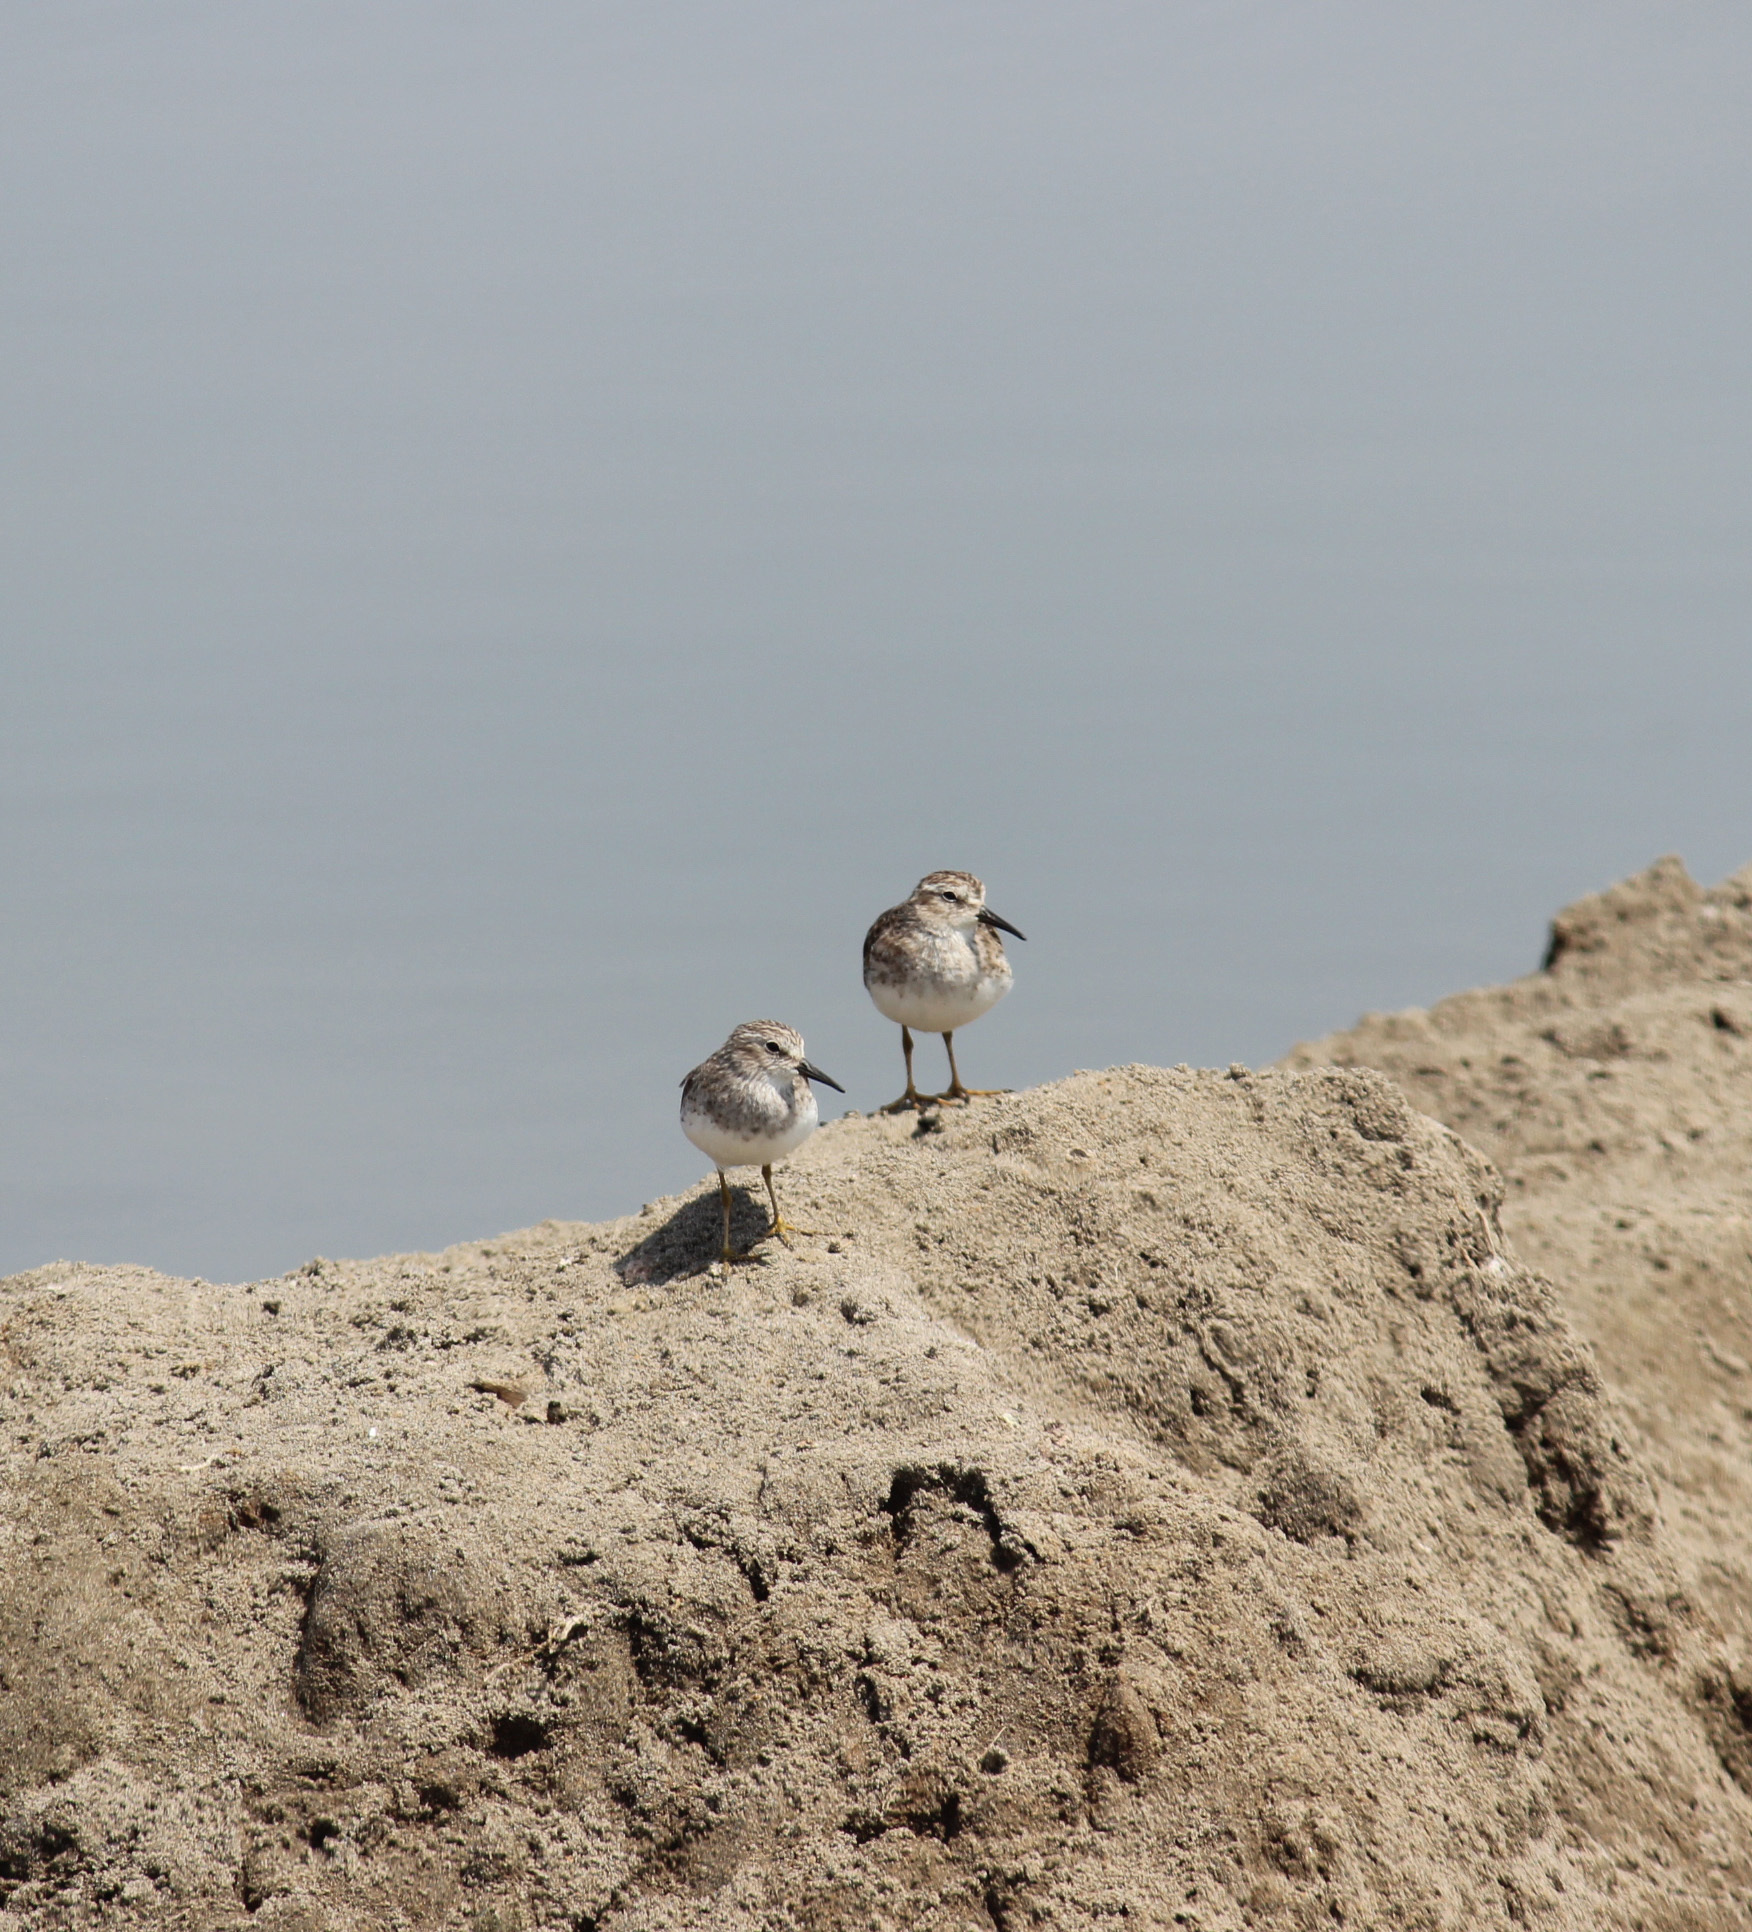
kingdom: Animalia
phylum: Chordata
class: Aves
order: Charadriiformes
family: Scolopacidae
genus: Calidris
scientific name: Calidris minutilla
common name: Least sandpiper
